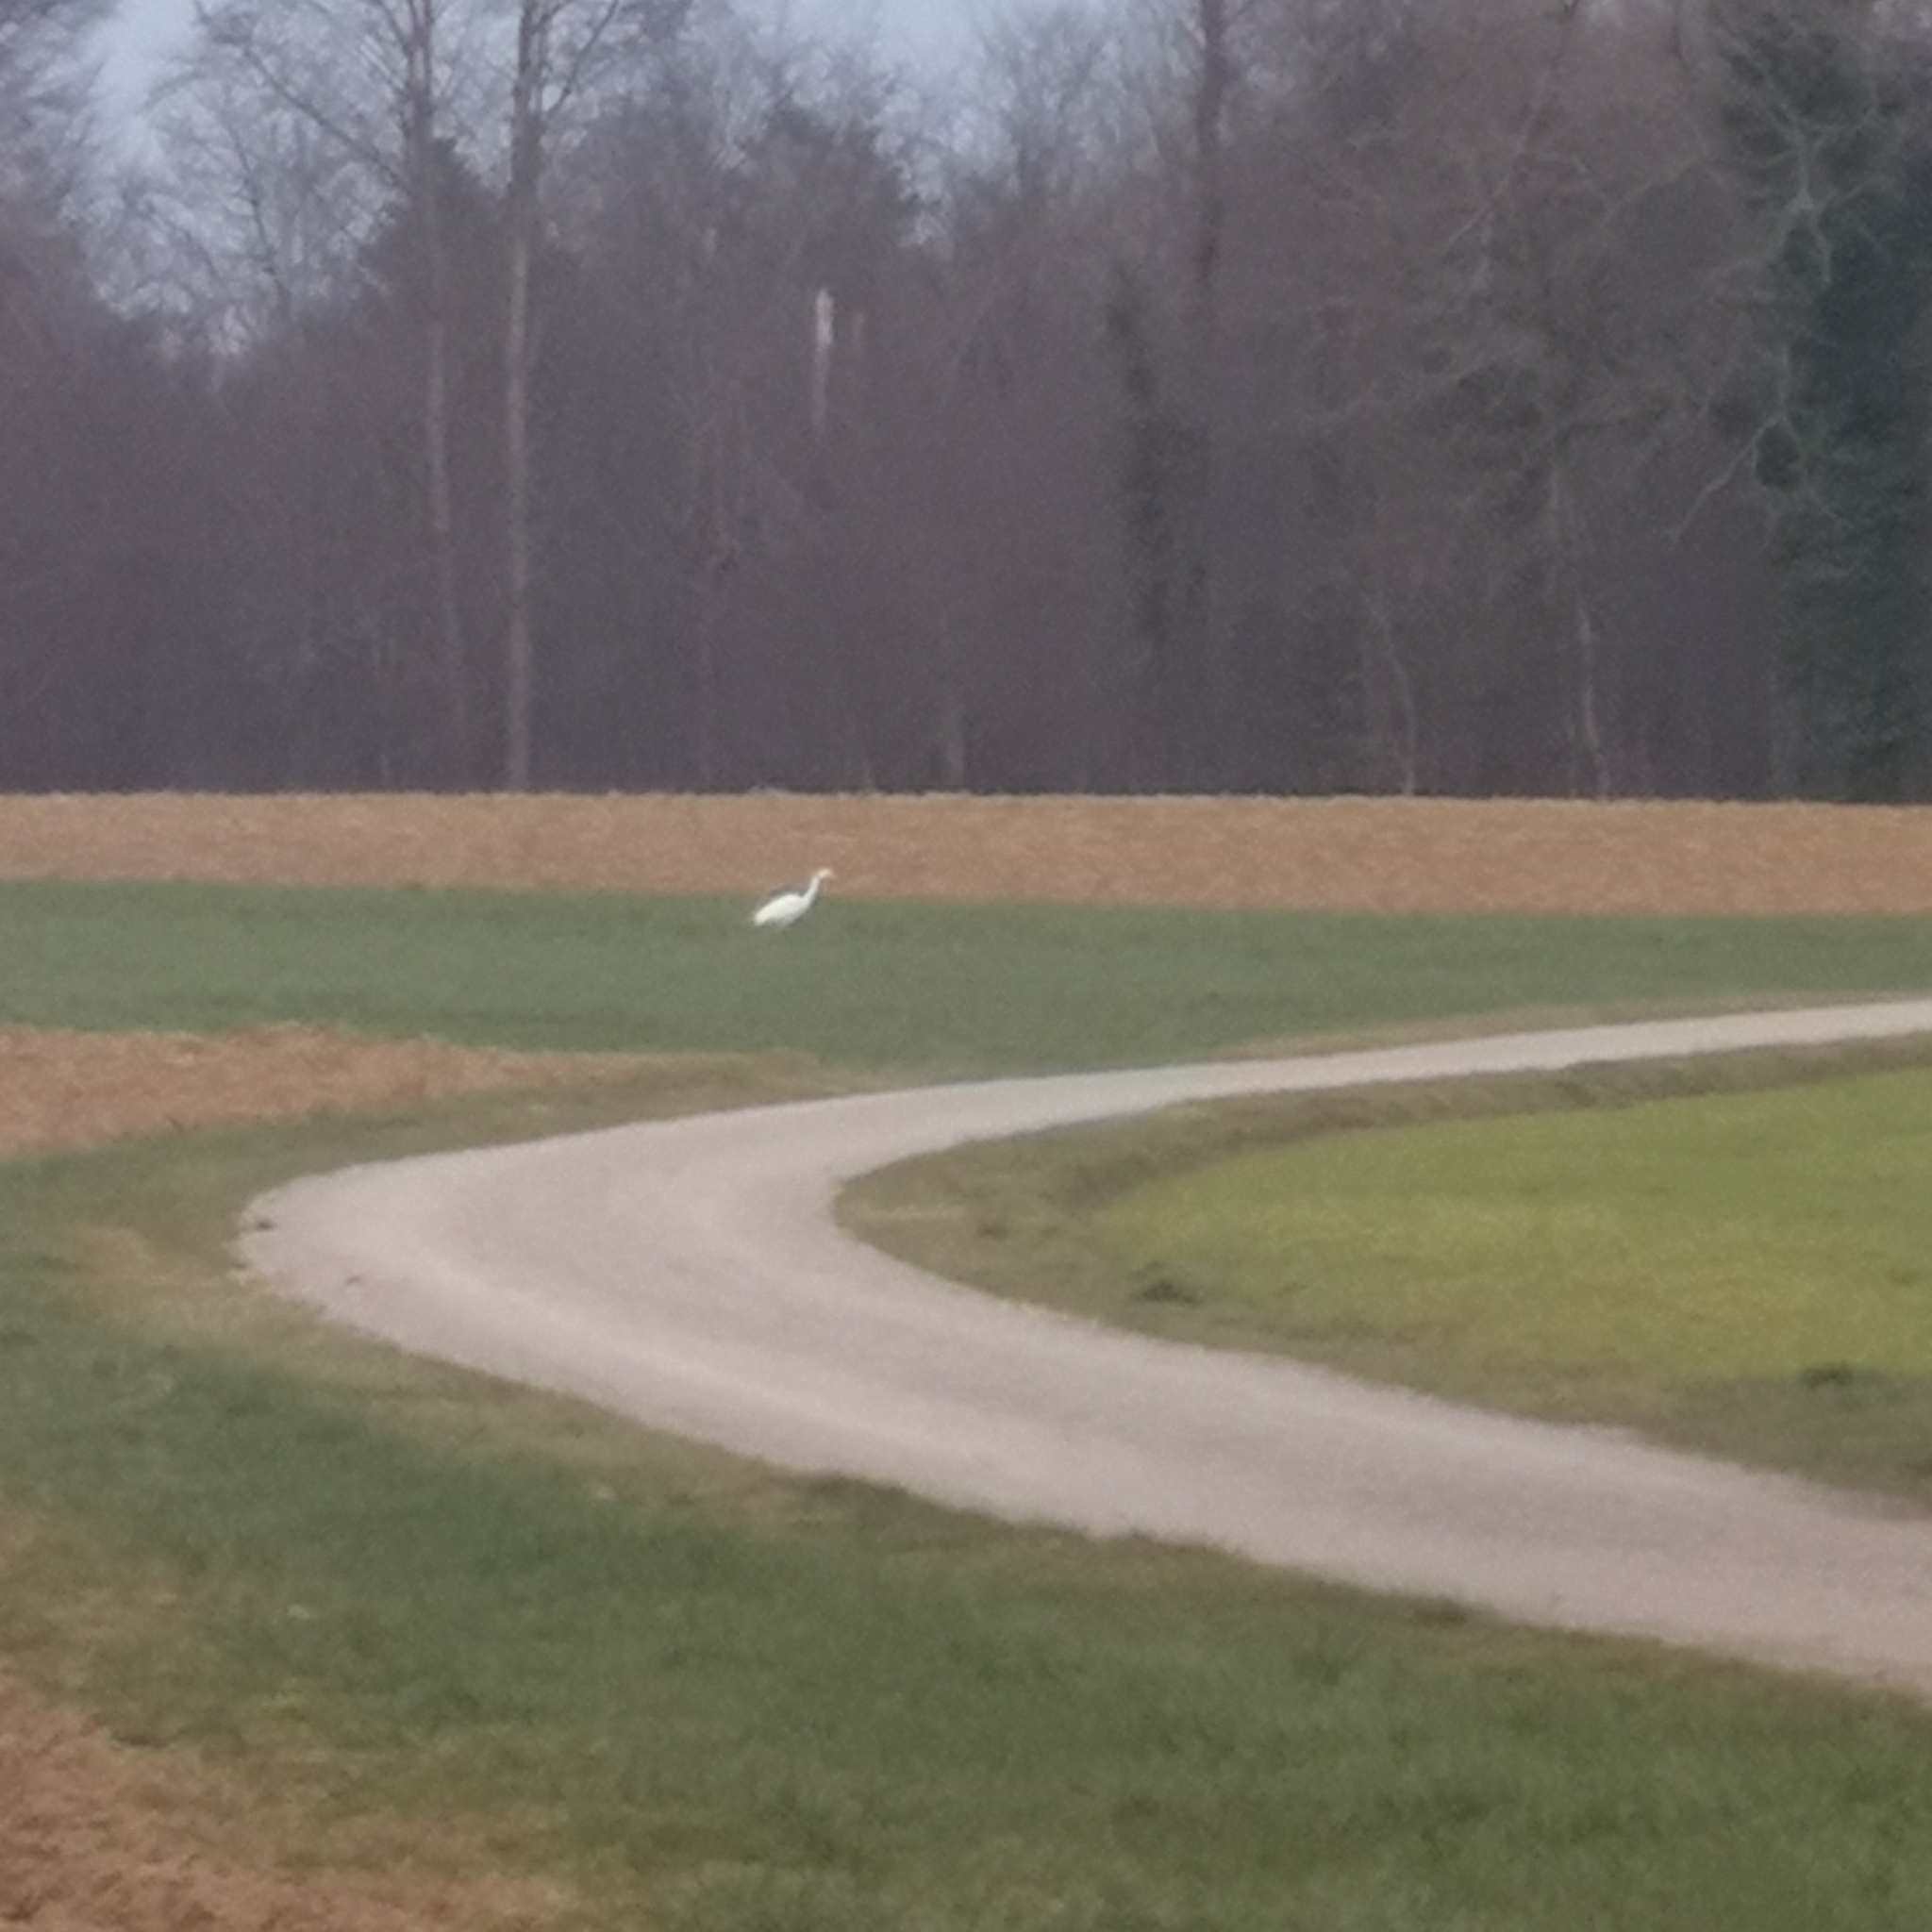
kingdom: Animalia
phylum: Chordata
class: Aves
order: Pelecaniformes
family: Ardeidae
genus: Ardea
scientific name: Ardea alba
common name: Great egret
